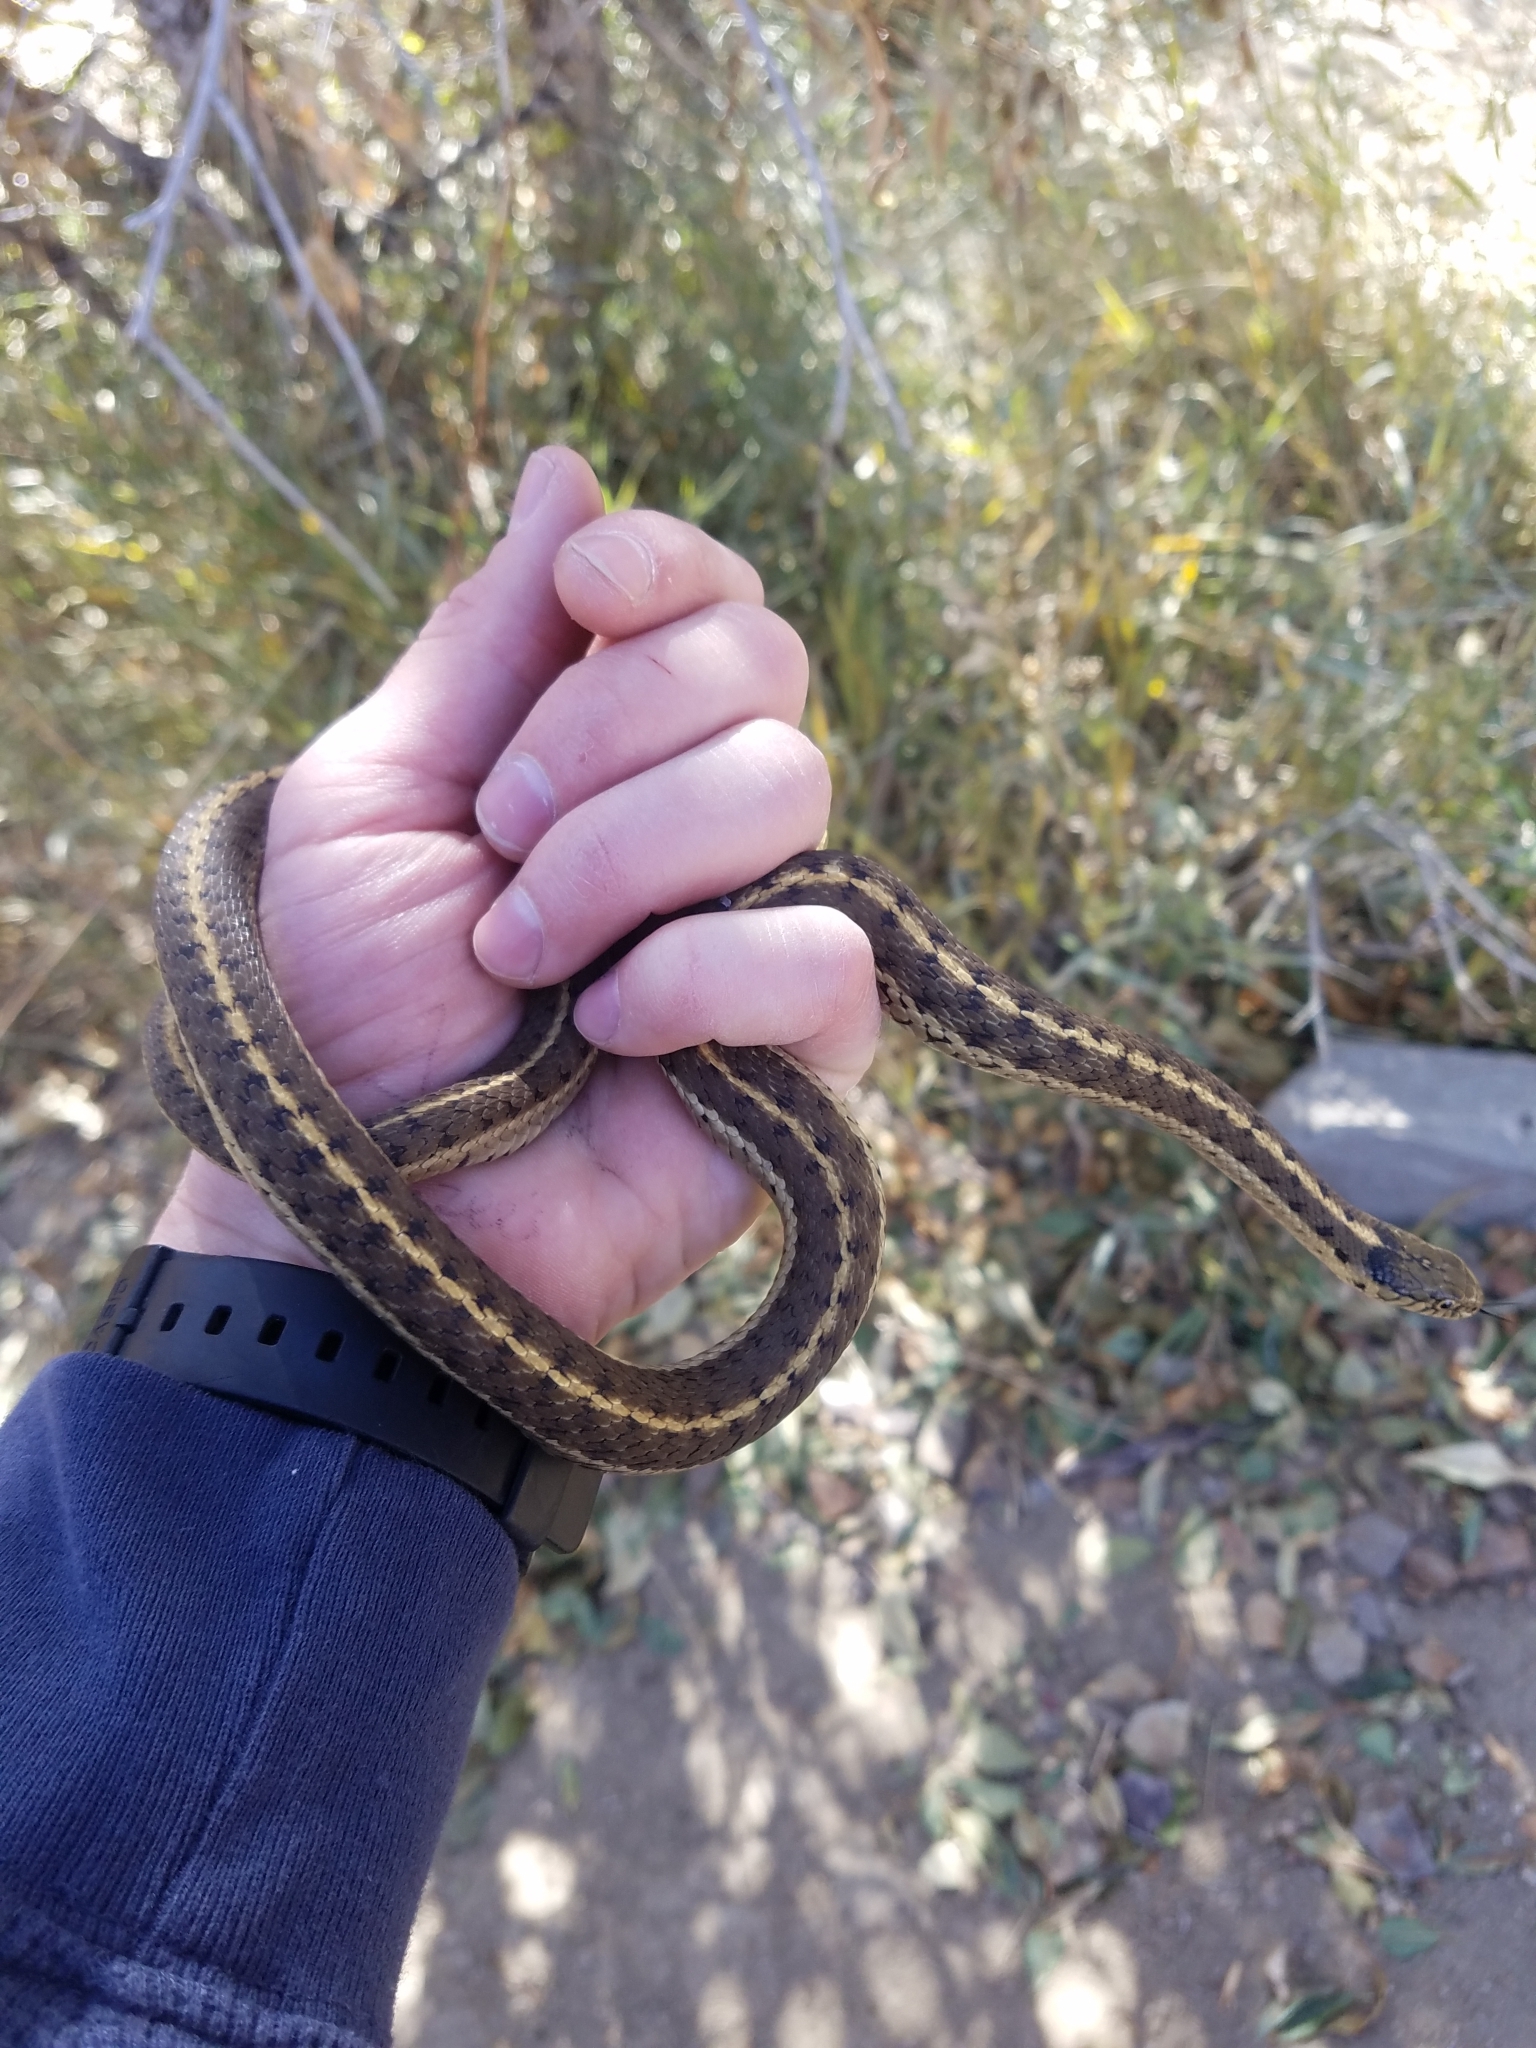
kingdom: Animalia
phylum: Chordata
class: Squamata
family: Colubridae
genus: Thamnophis
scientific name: Thamnophis elegans
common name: Western terrestrial garter snake
